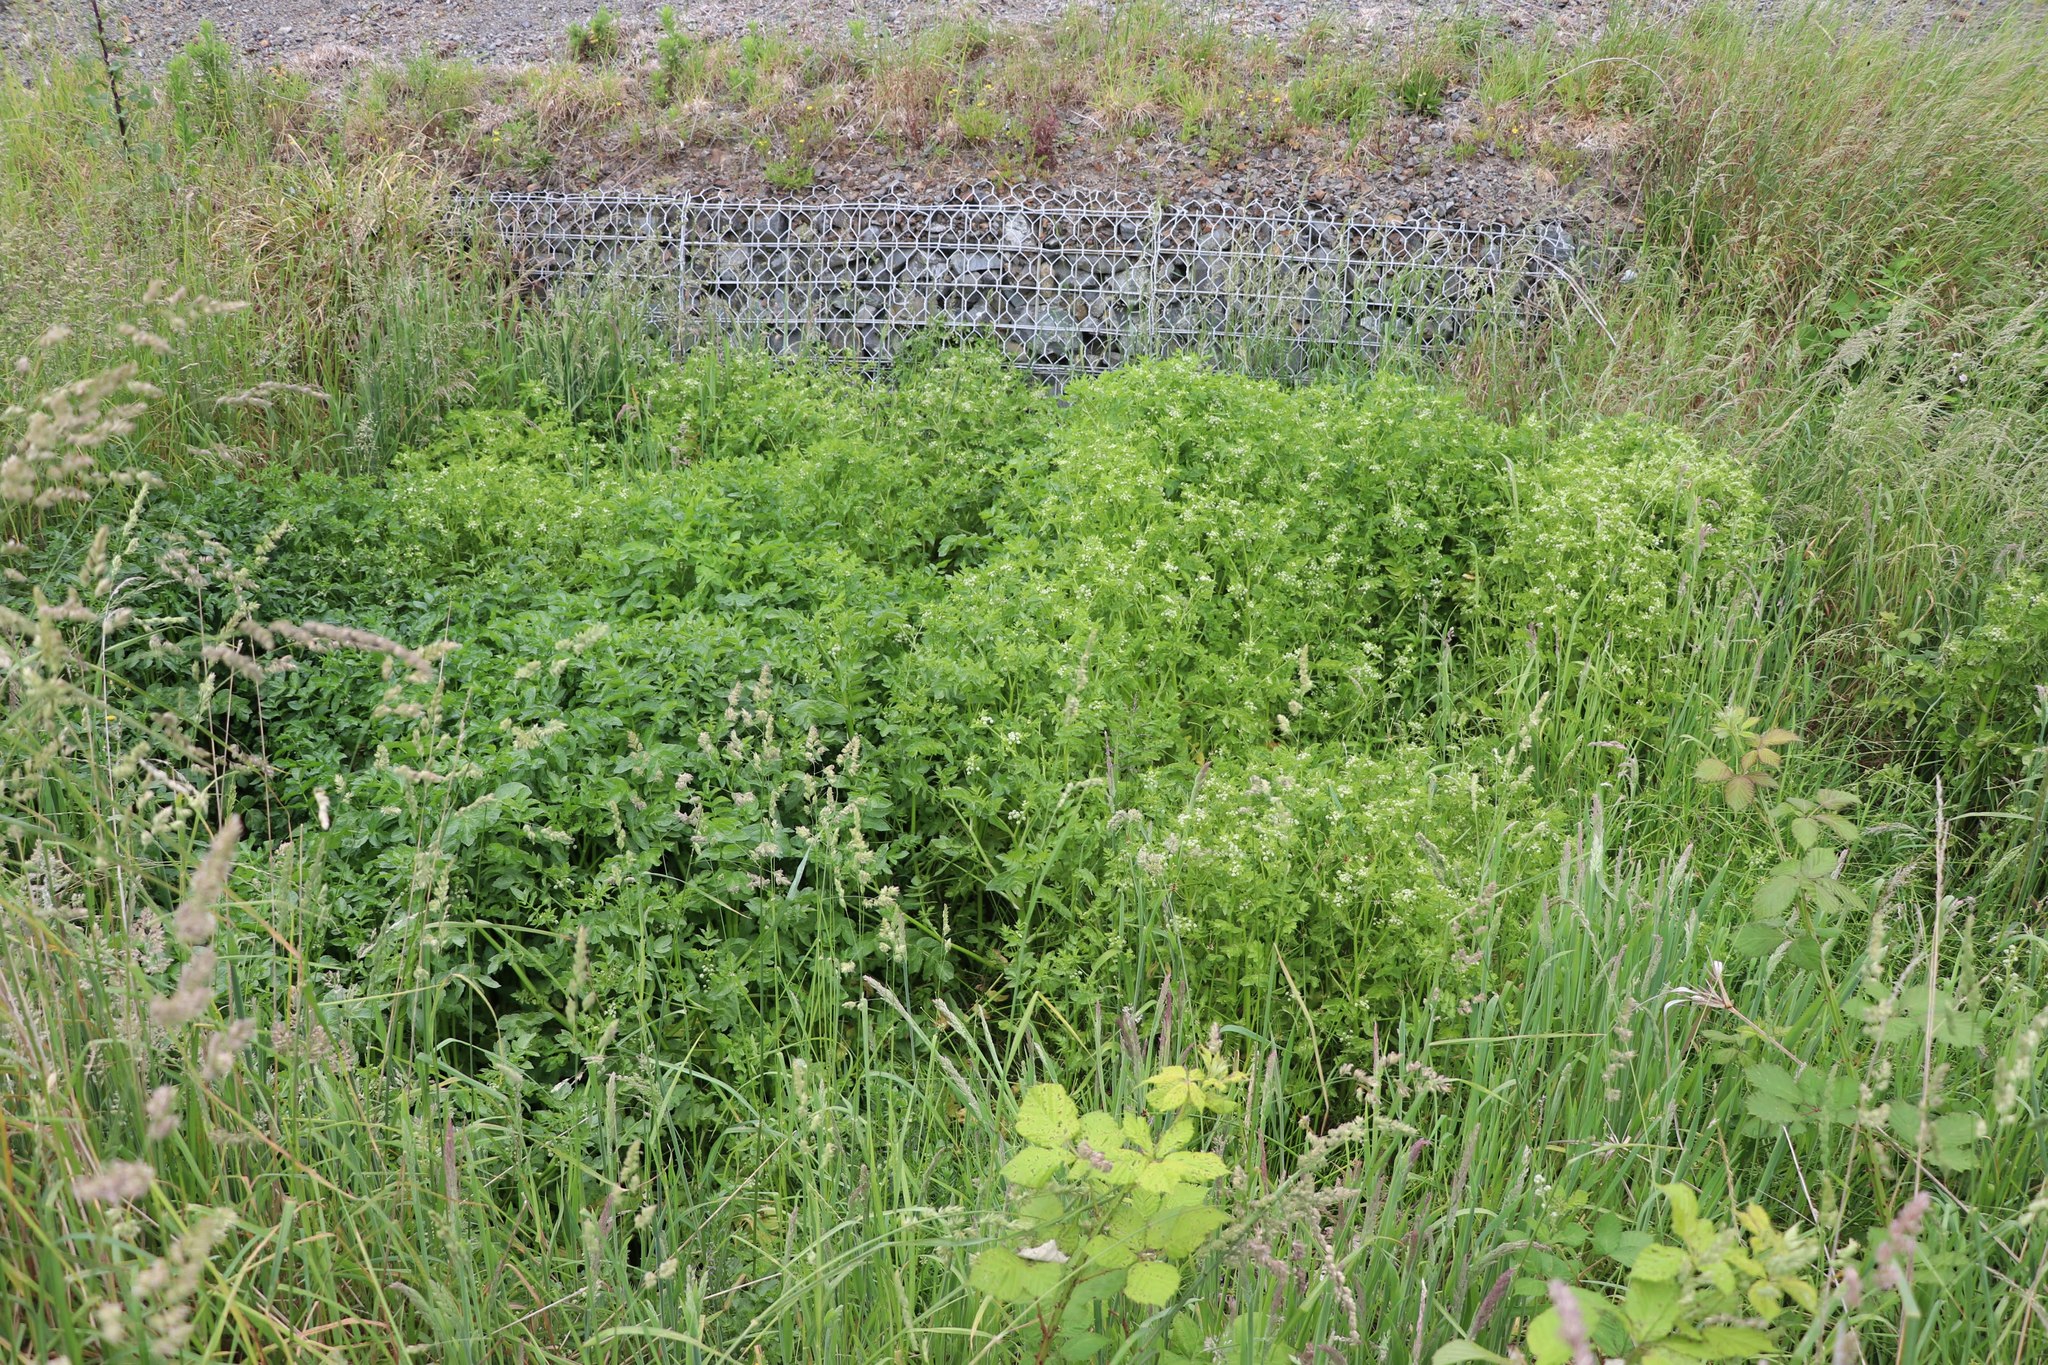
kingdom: Plantae
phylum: Tracheophyta
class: Magnoliopsida
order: Apiales
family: Apiaceae
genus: Helosciadium
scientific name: Helosciadium nodiflorum
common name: Fool's-watercress
